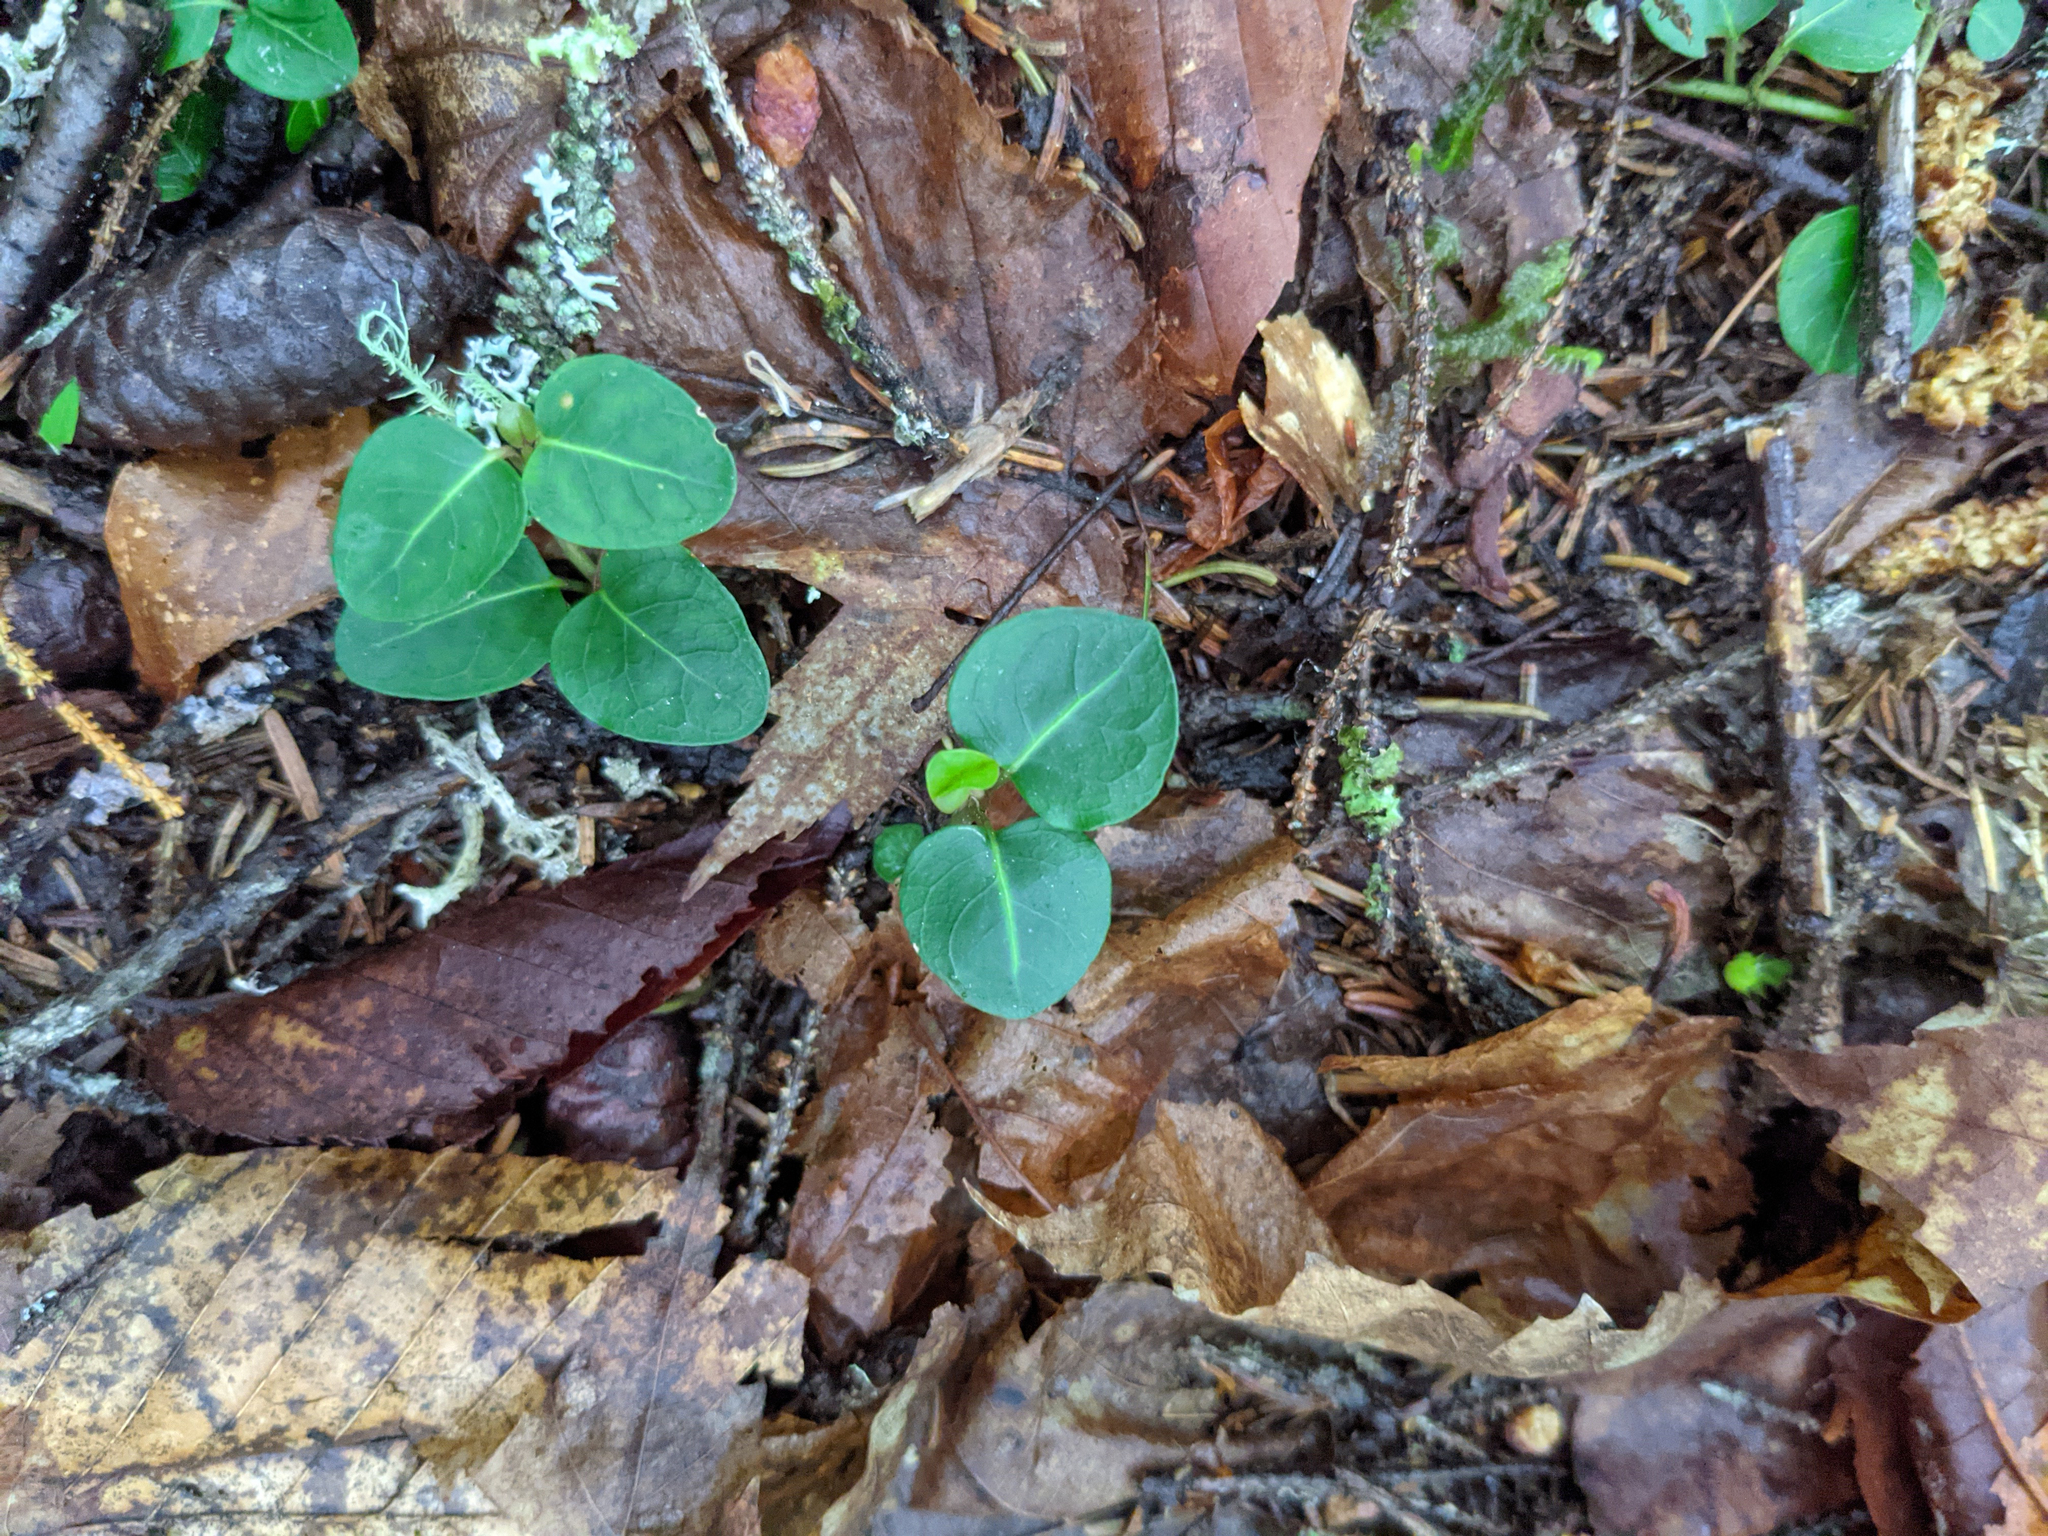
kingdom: Plantae
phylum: Tracheophyta
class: Magnoliopsida
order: Gentianales
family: Rubiaceae
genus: Mitchella
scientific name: Mitchella repens
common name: Partridge-berry
